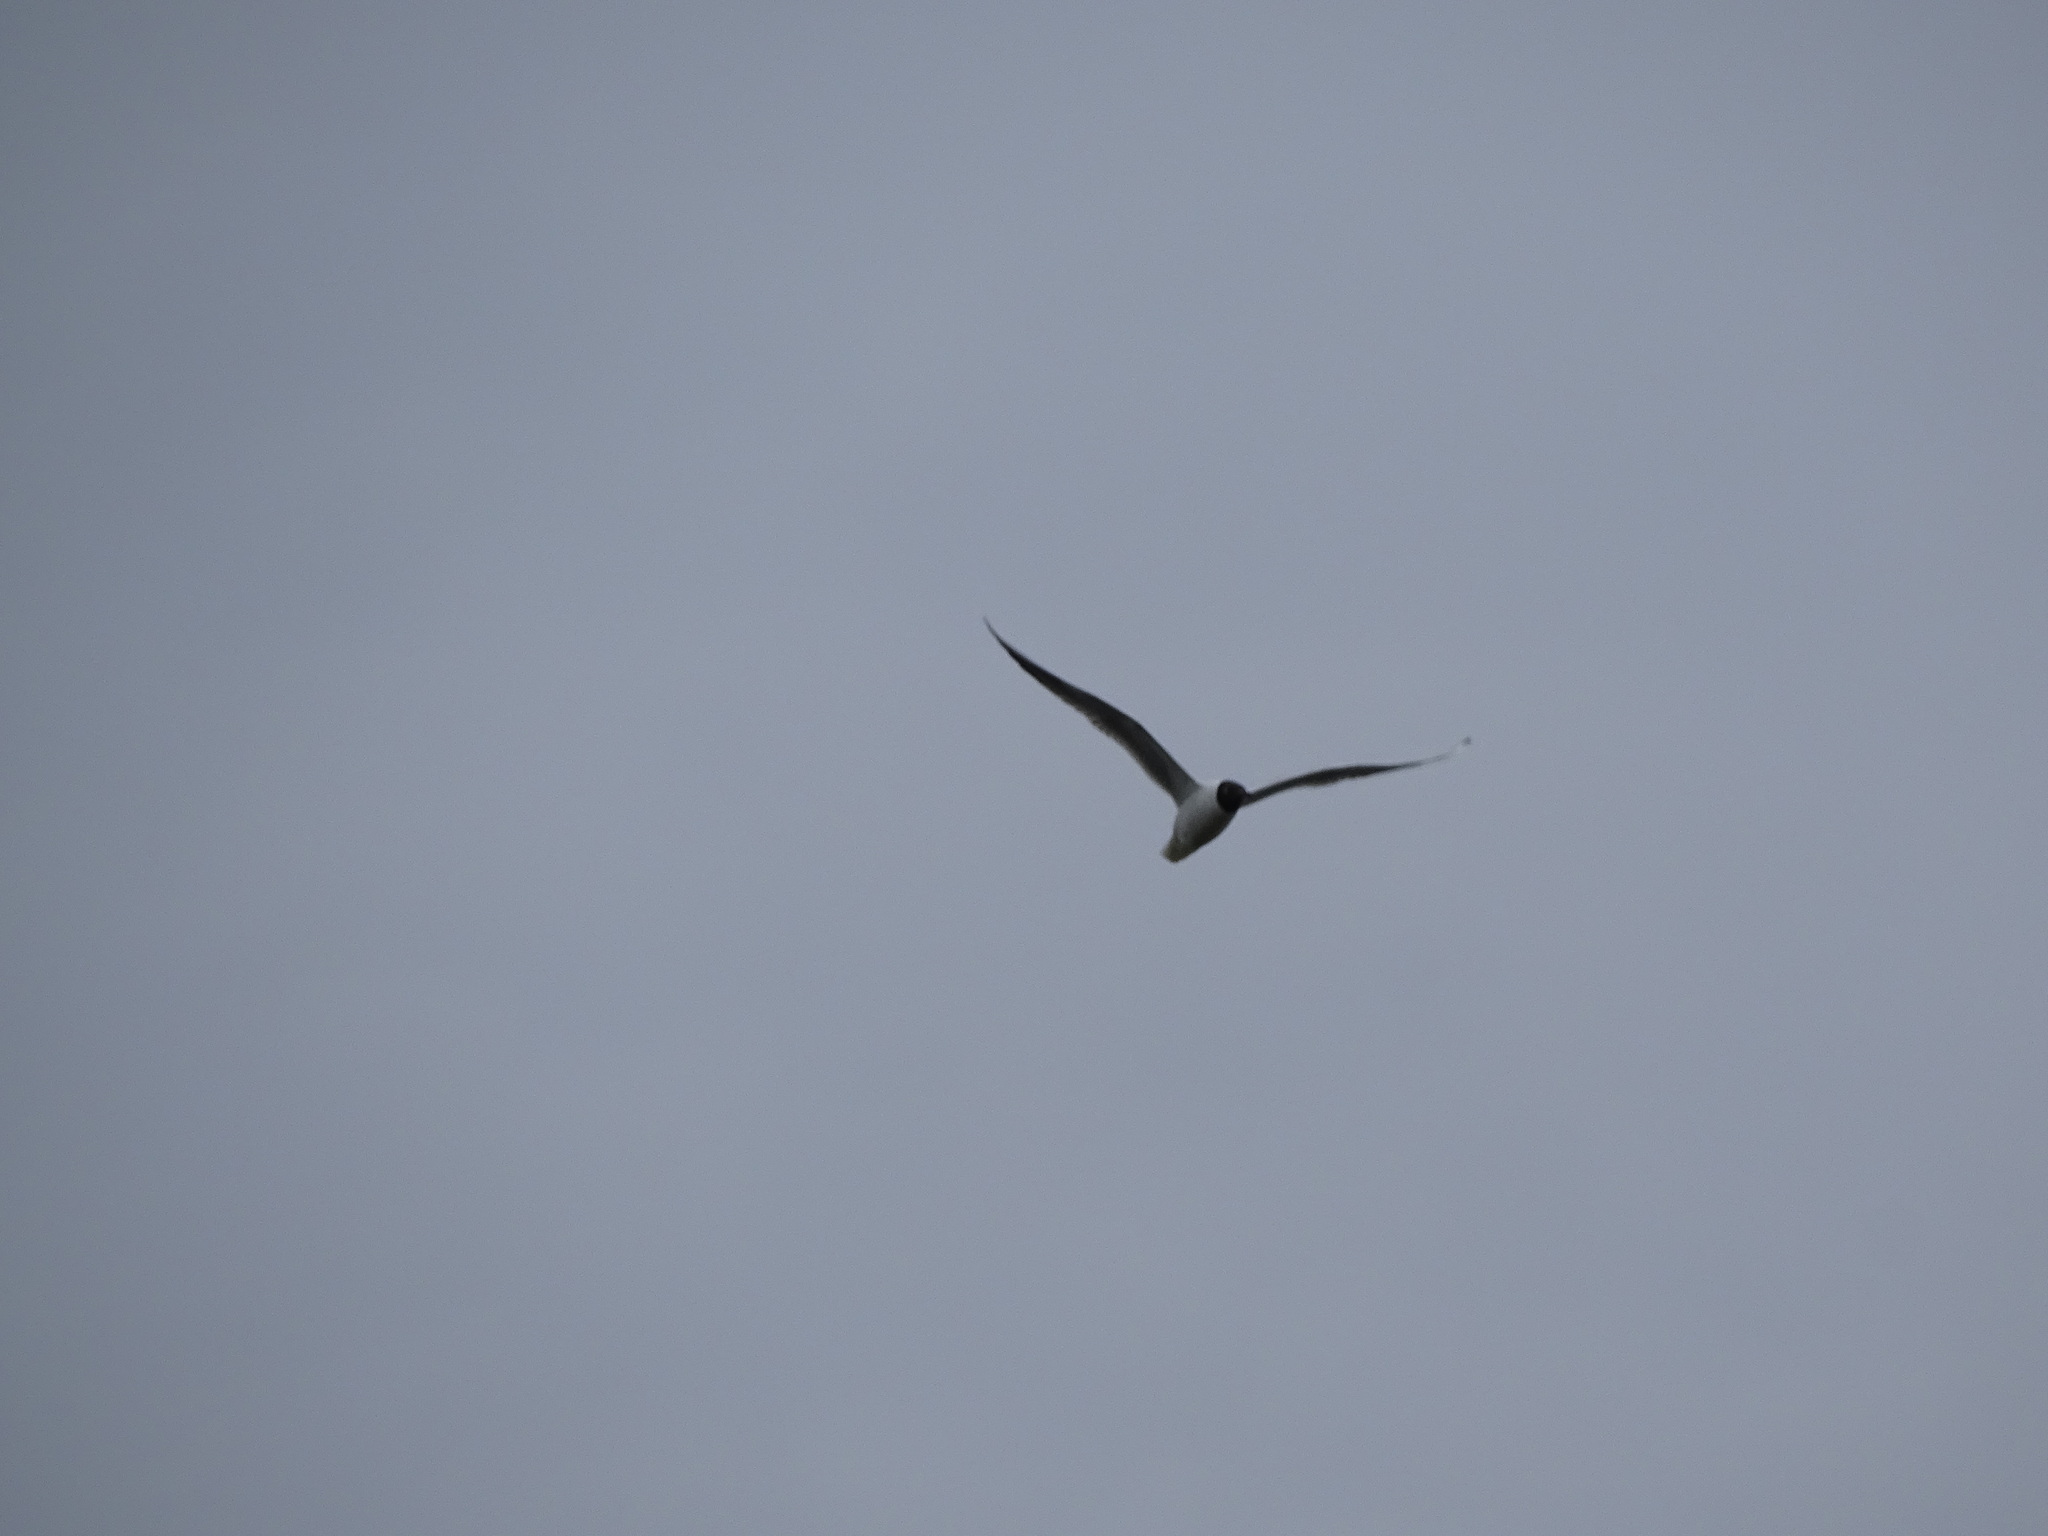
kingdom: Animalia
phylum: Chordata
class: Aves
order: Charadriiformes
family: Laridae
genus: Chroicocephalus
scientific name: Chroicocephalus ridibundus
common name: Black-headed gull
